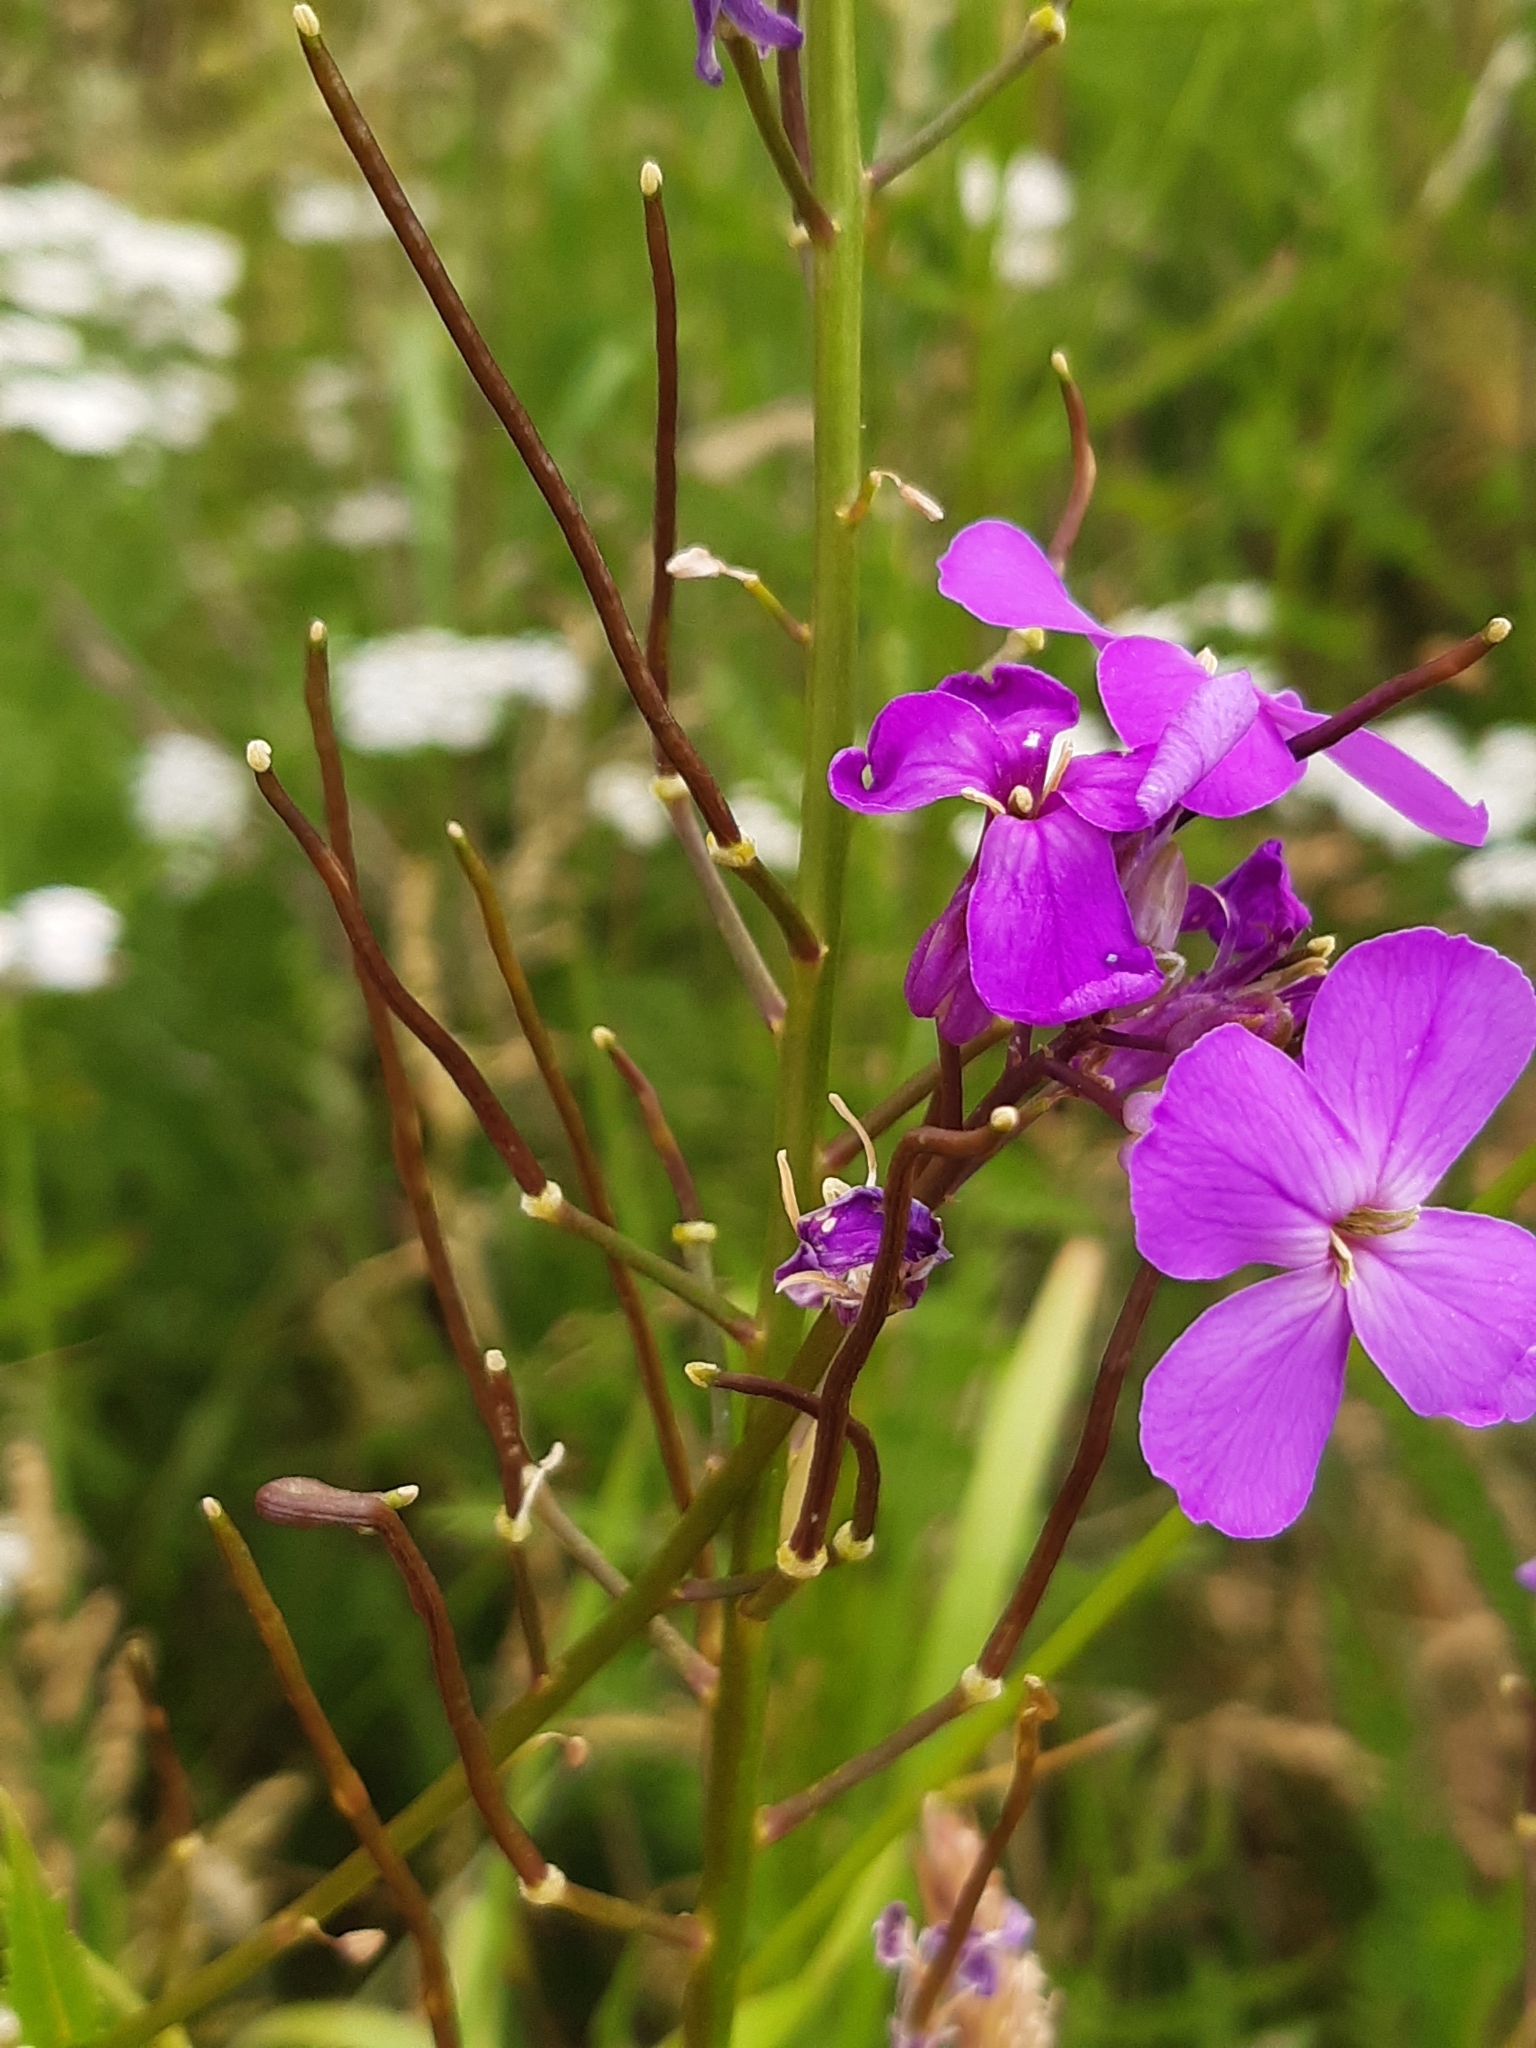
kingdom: Plantae
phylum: Tracheophyta
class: Magnoliopsida
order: Brassicales
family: Brassicaceae
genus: Hesperis
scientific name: Hesperis matronalis
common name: Dame's-violet
